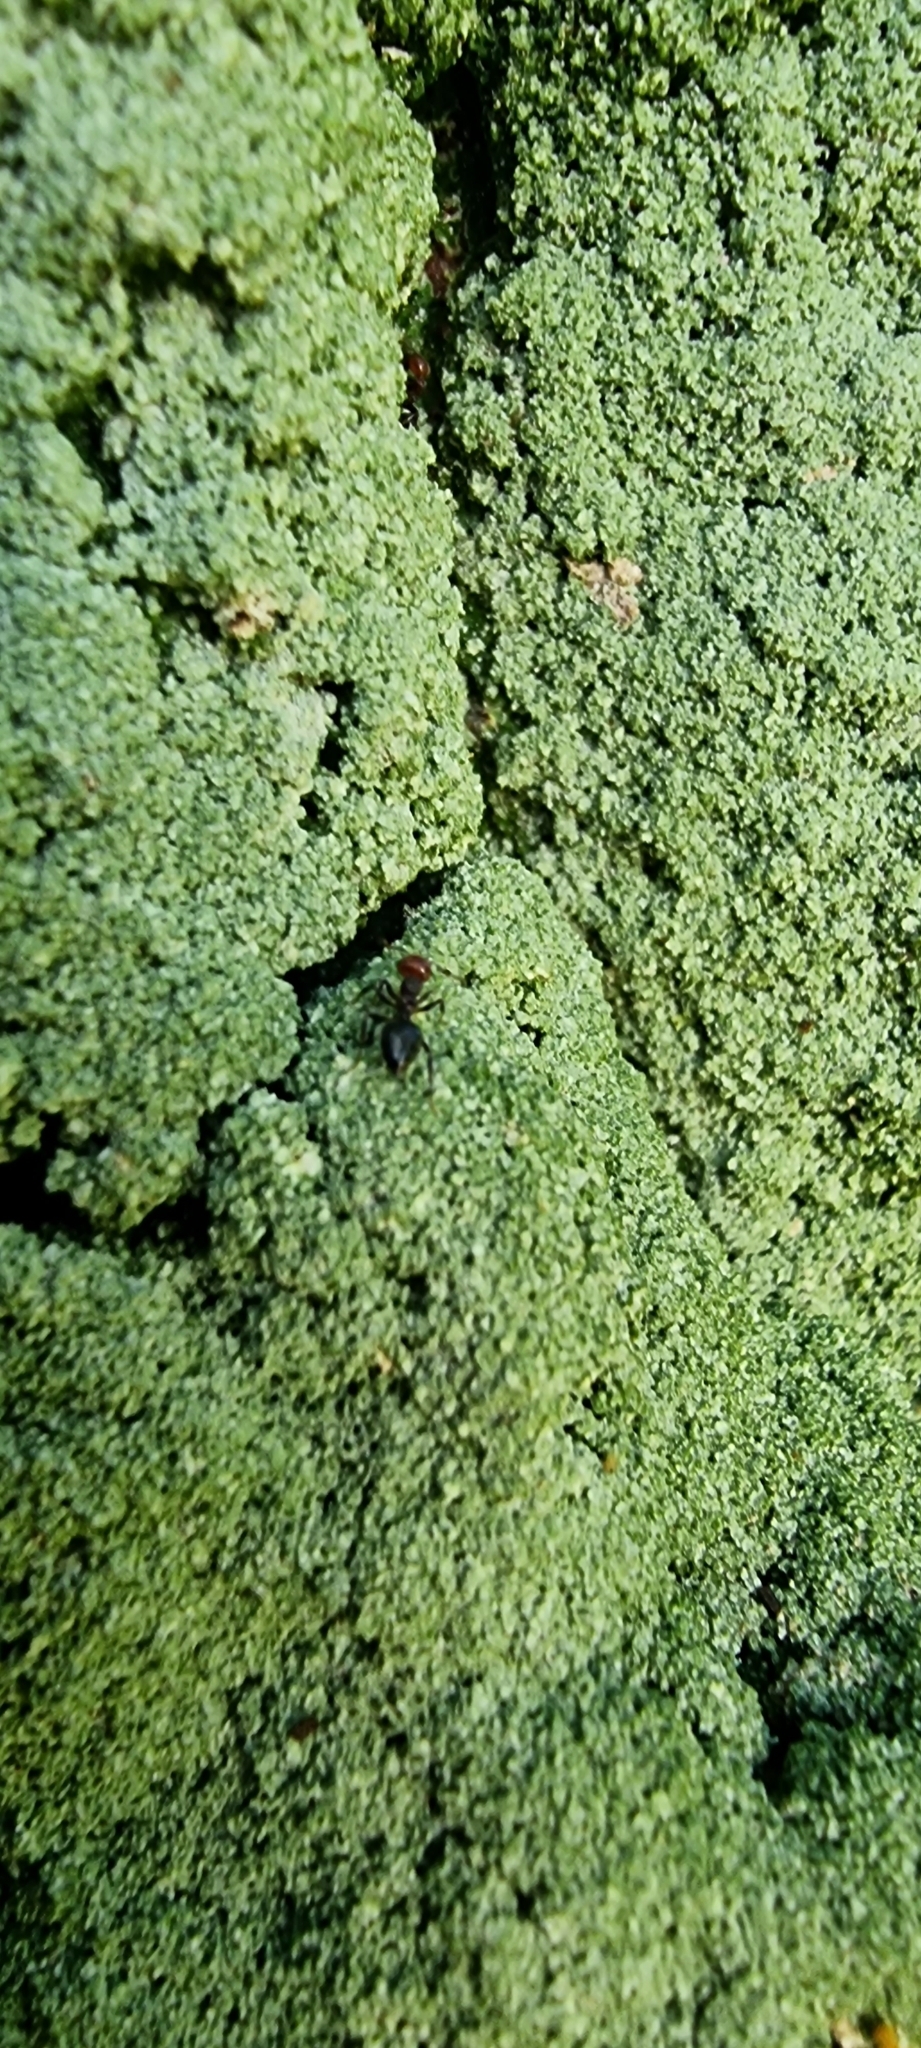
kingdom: Animalia
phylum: Arthropoda
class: Insecta
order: Hymenoptera
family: Formicidae
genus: Crematogaster
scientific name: Crematogaster scutellaris
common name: Fourmi du liège
